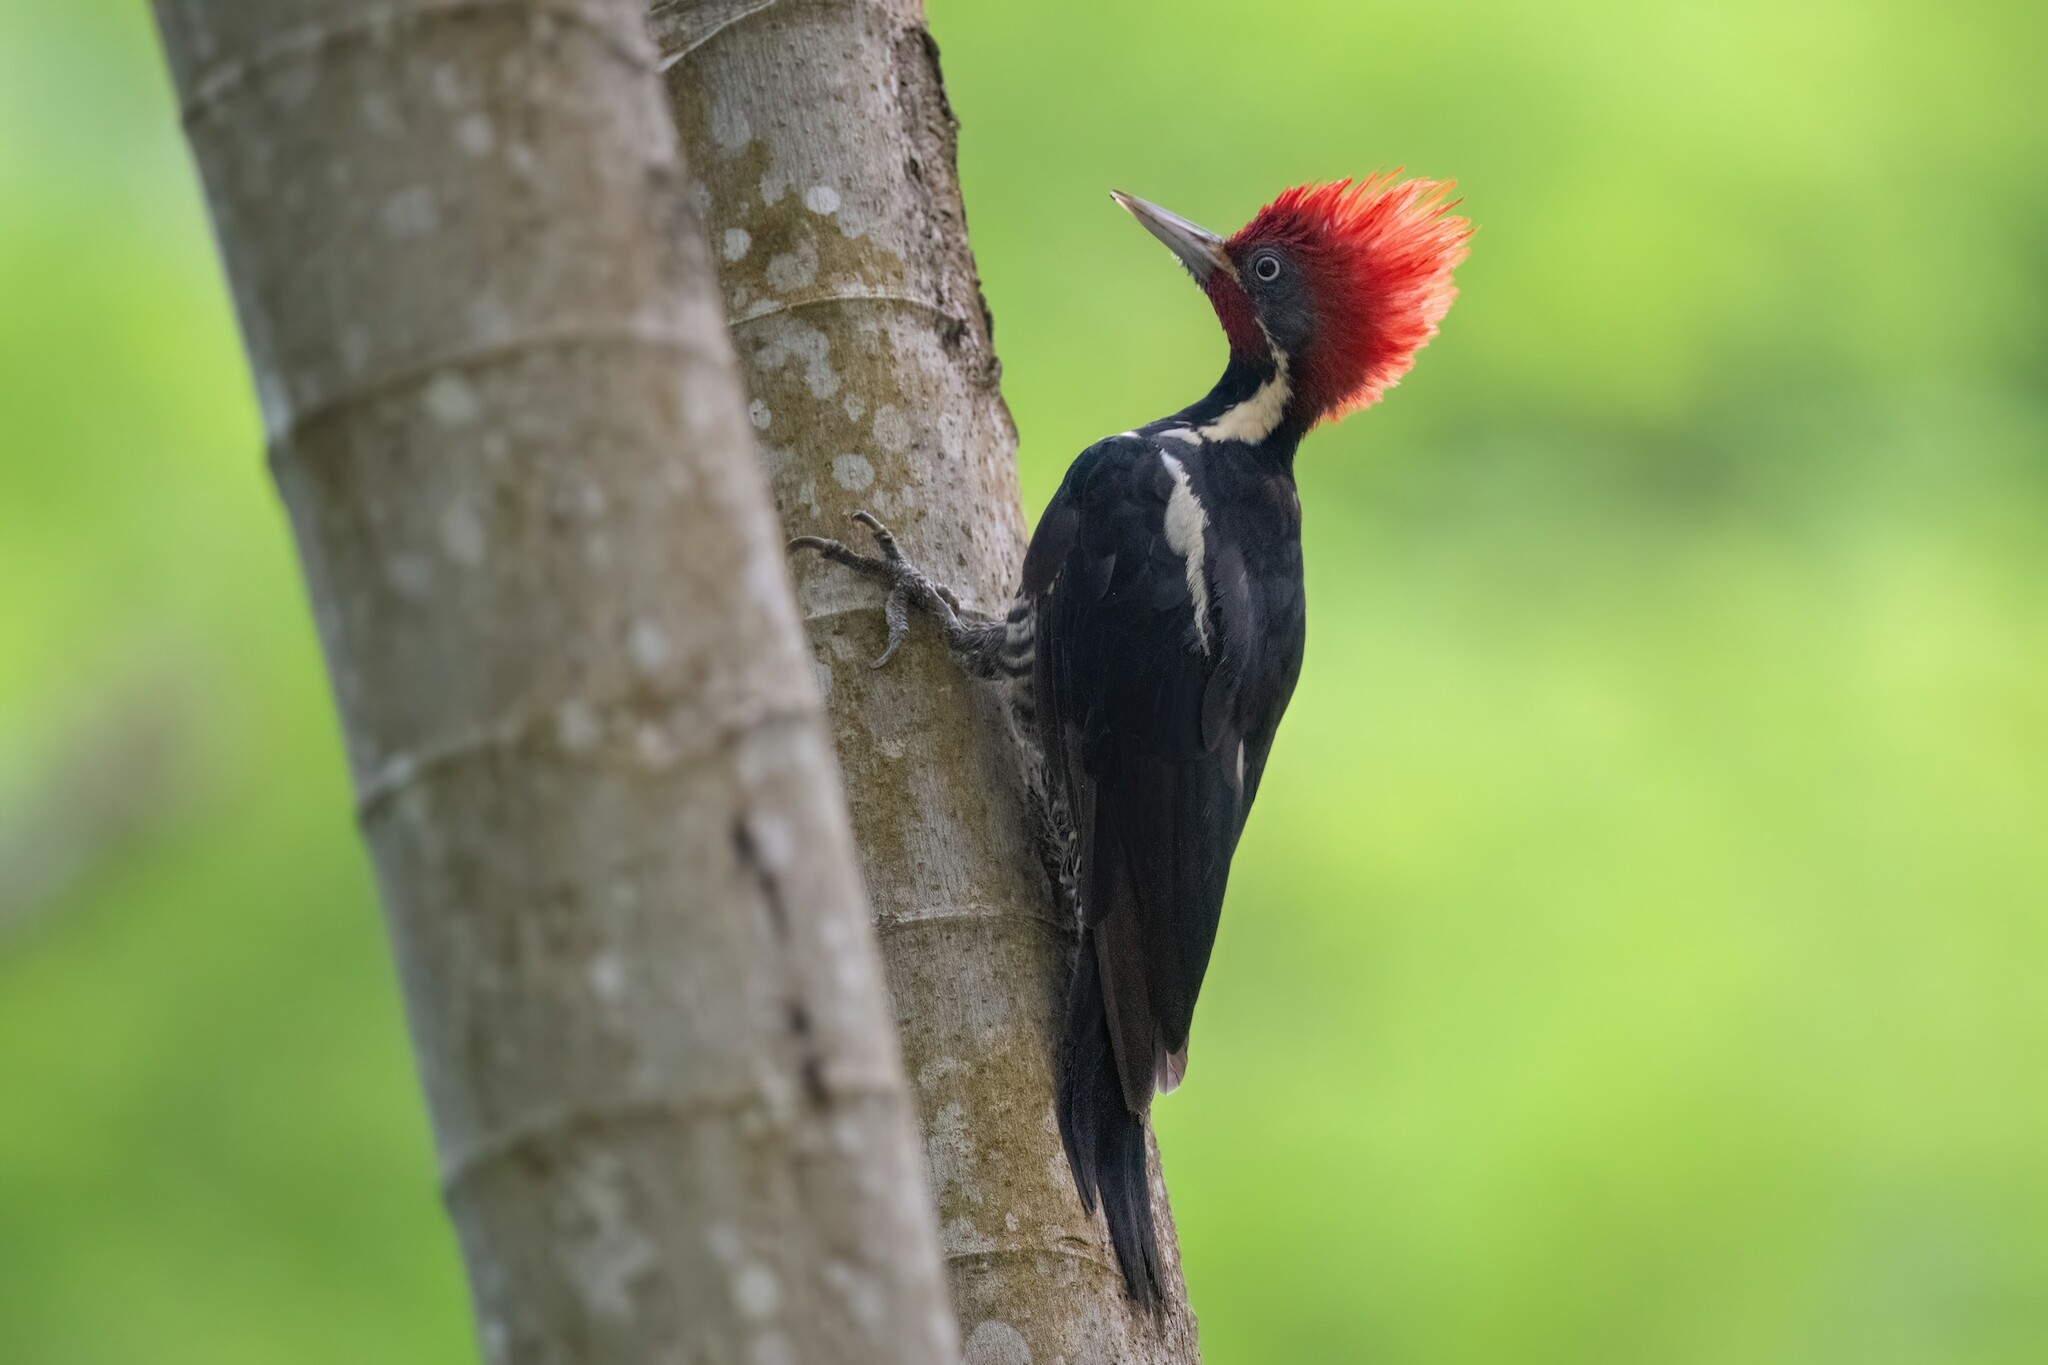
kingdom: Animalia
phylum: Chordata
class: Aves
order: Piciformes
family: Picidae
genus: Dryocopus
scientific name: Dryocopus lineatus
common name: Lineated woodpecker
